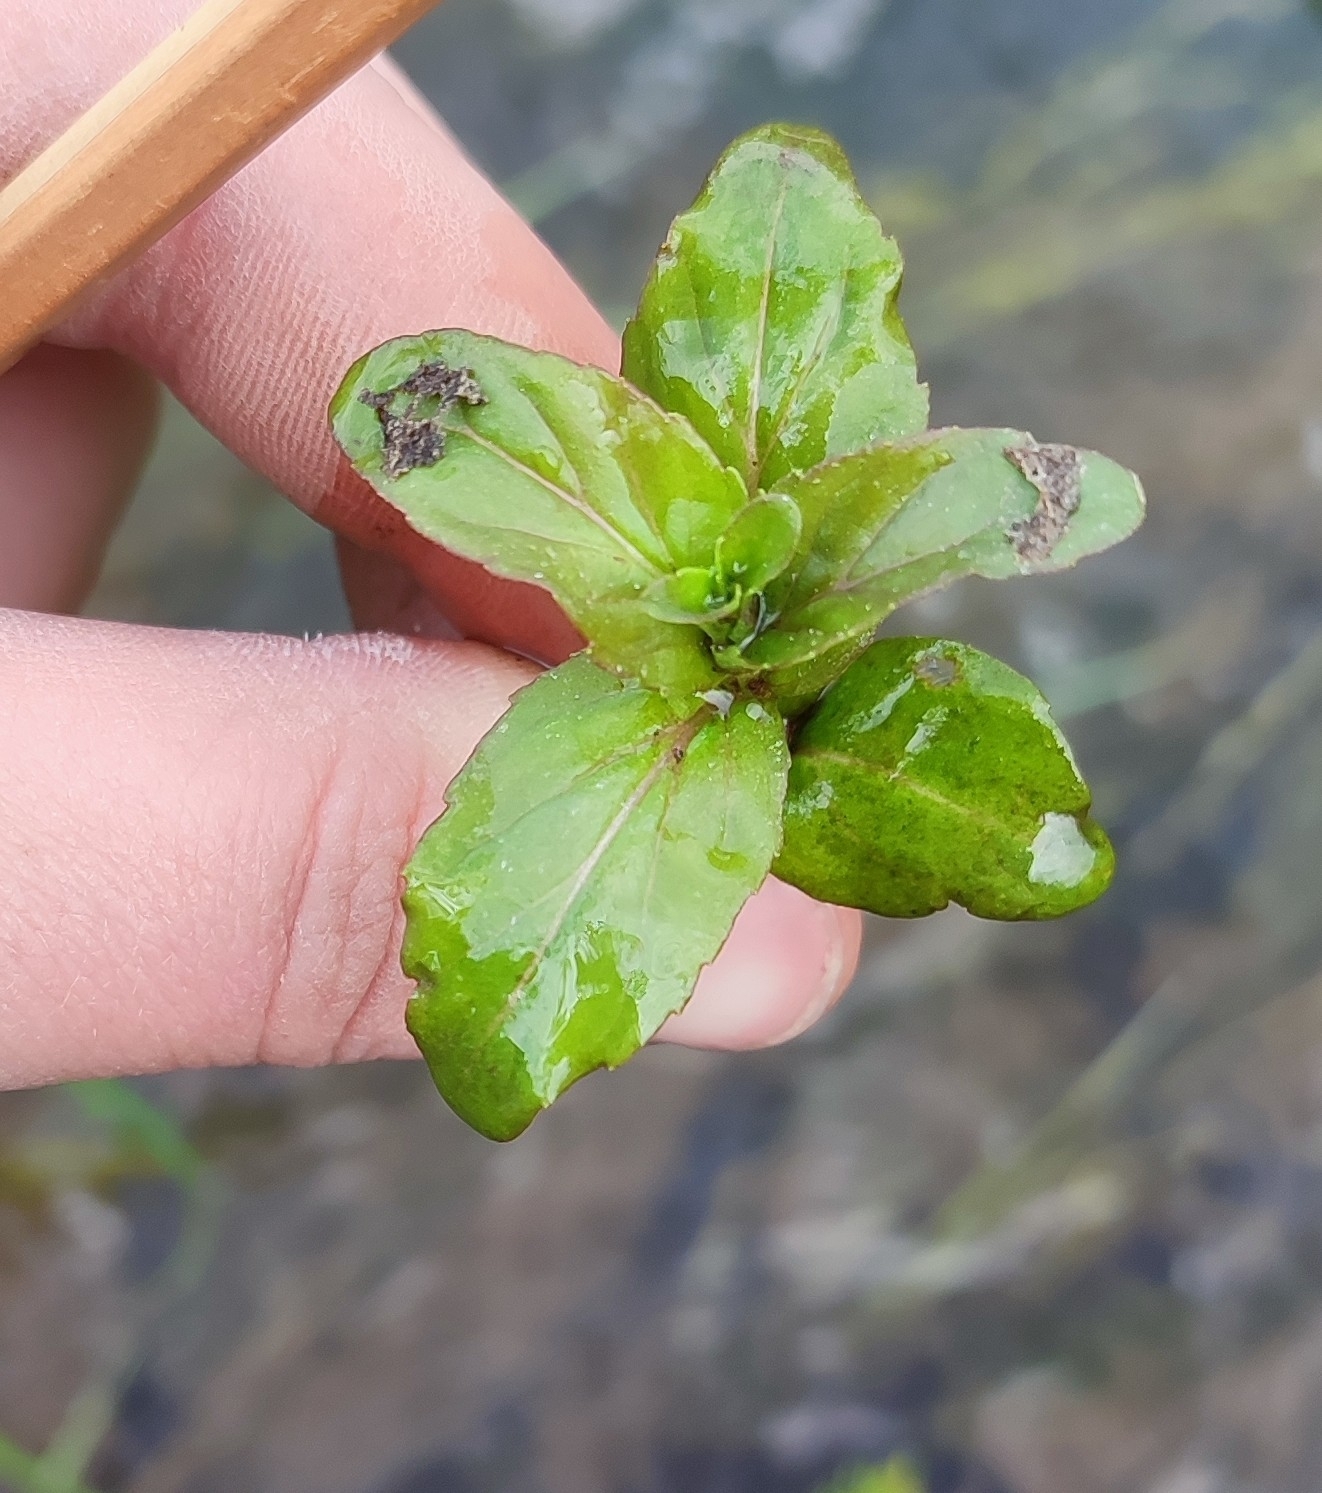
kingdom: Plantae
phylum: Tracheophyta
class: Magnoliopsida
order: Lamiales
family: Plantaginaceae
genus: Veronica
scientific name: Veronica anagallis-aquatica
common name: Water speedwell
